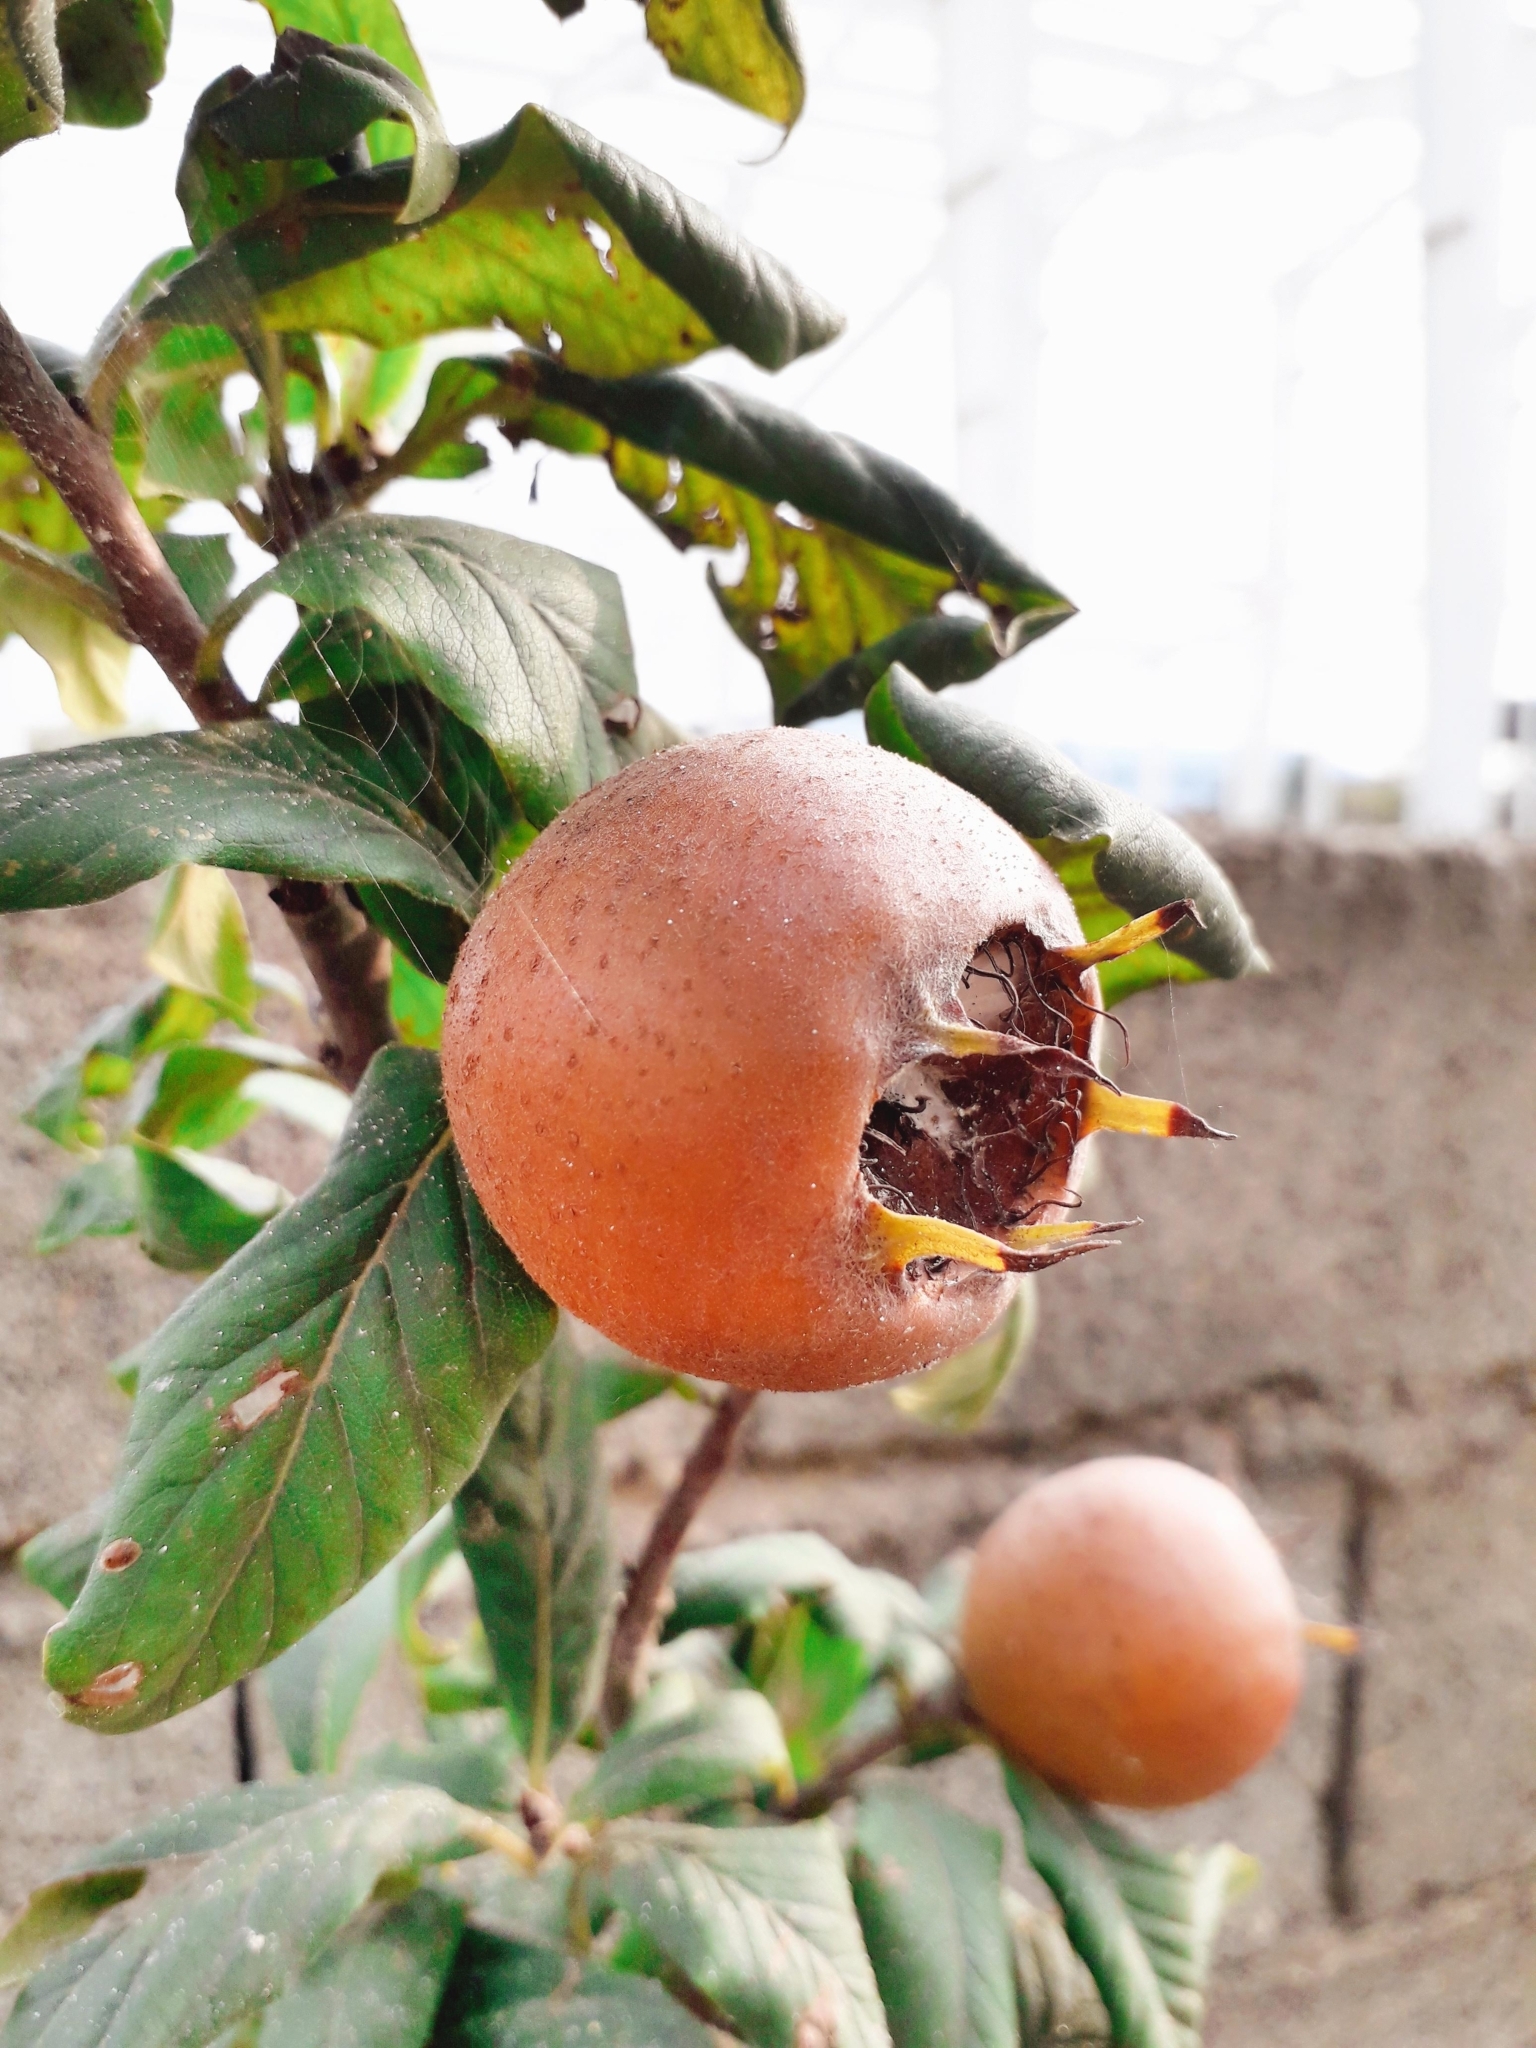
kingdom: Plantae
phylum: Tracheophyta
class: Magnoliopsida
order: Rosales
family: Rosaceae
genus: Mespilus
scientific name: Mespilus germanica
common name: Medlar
